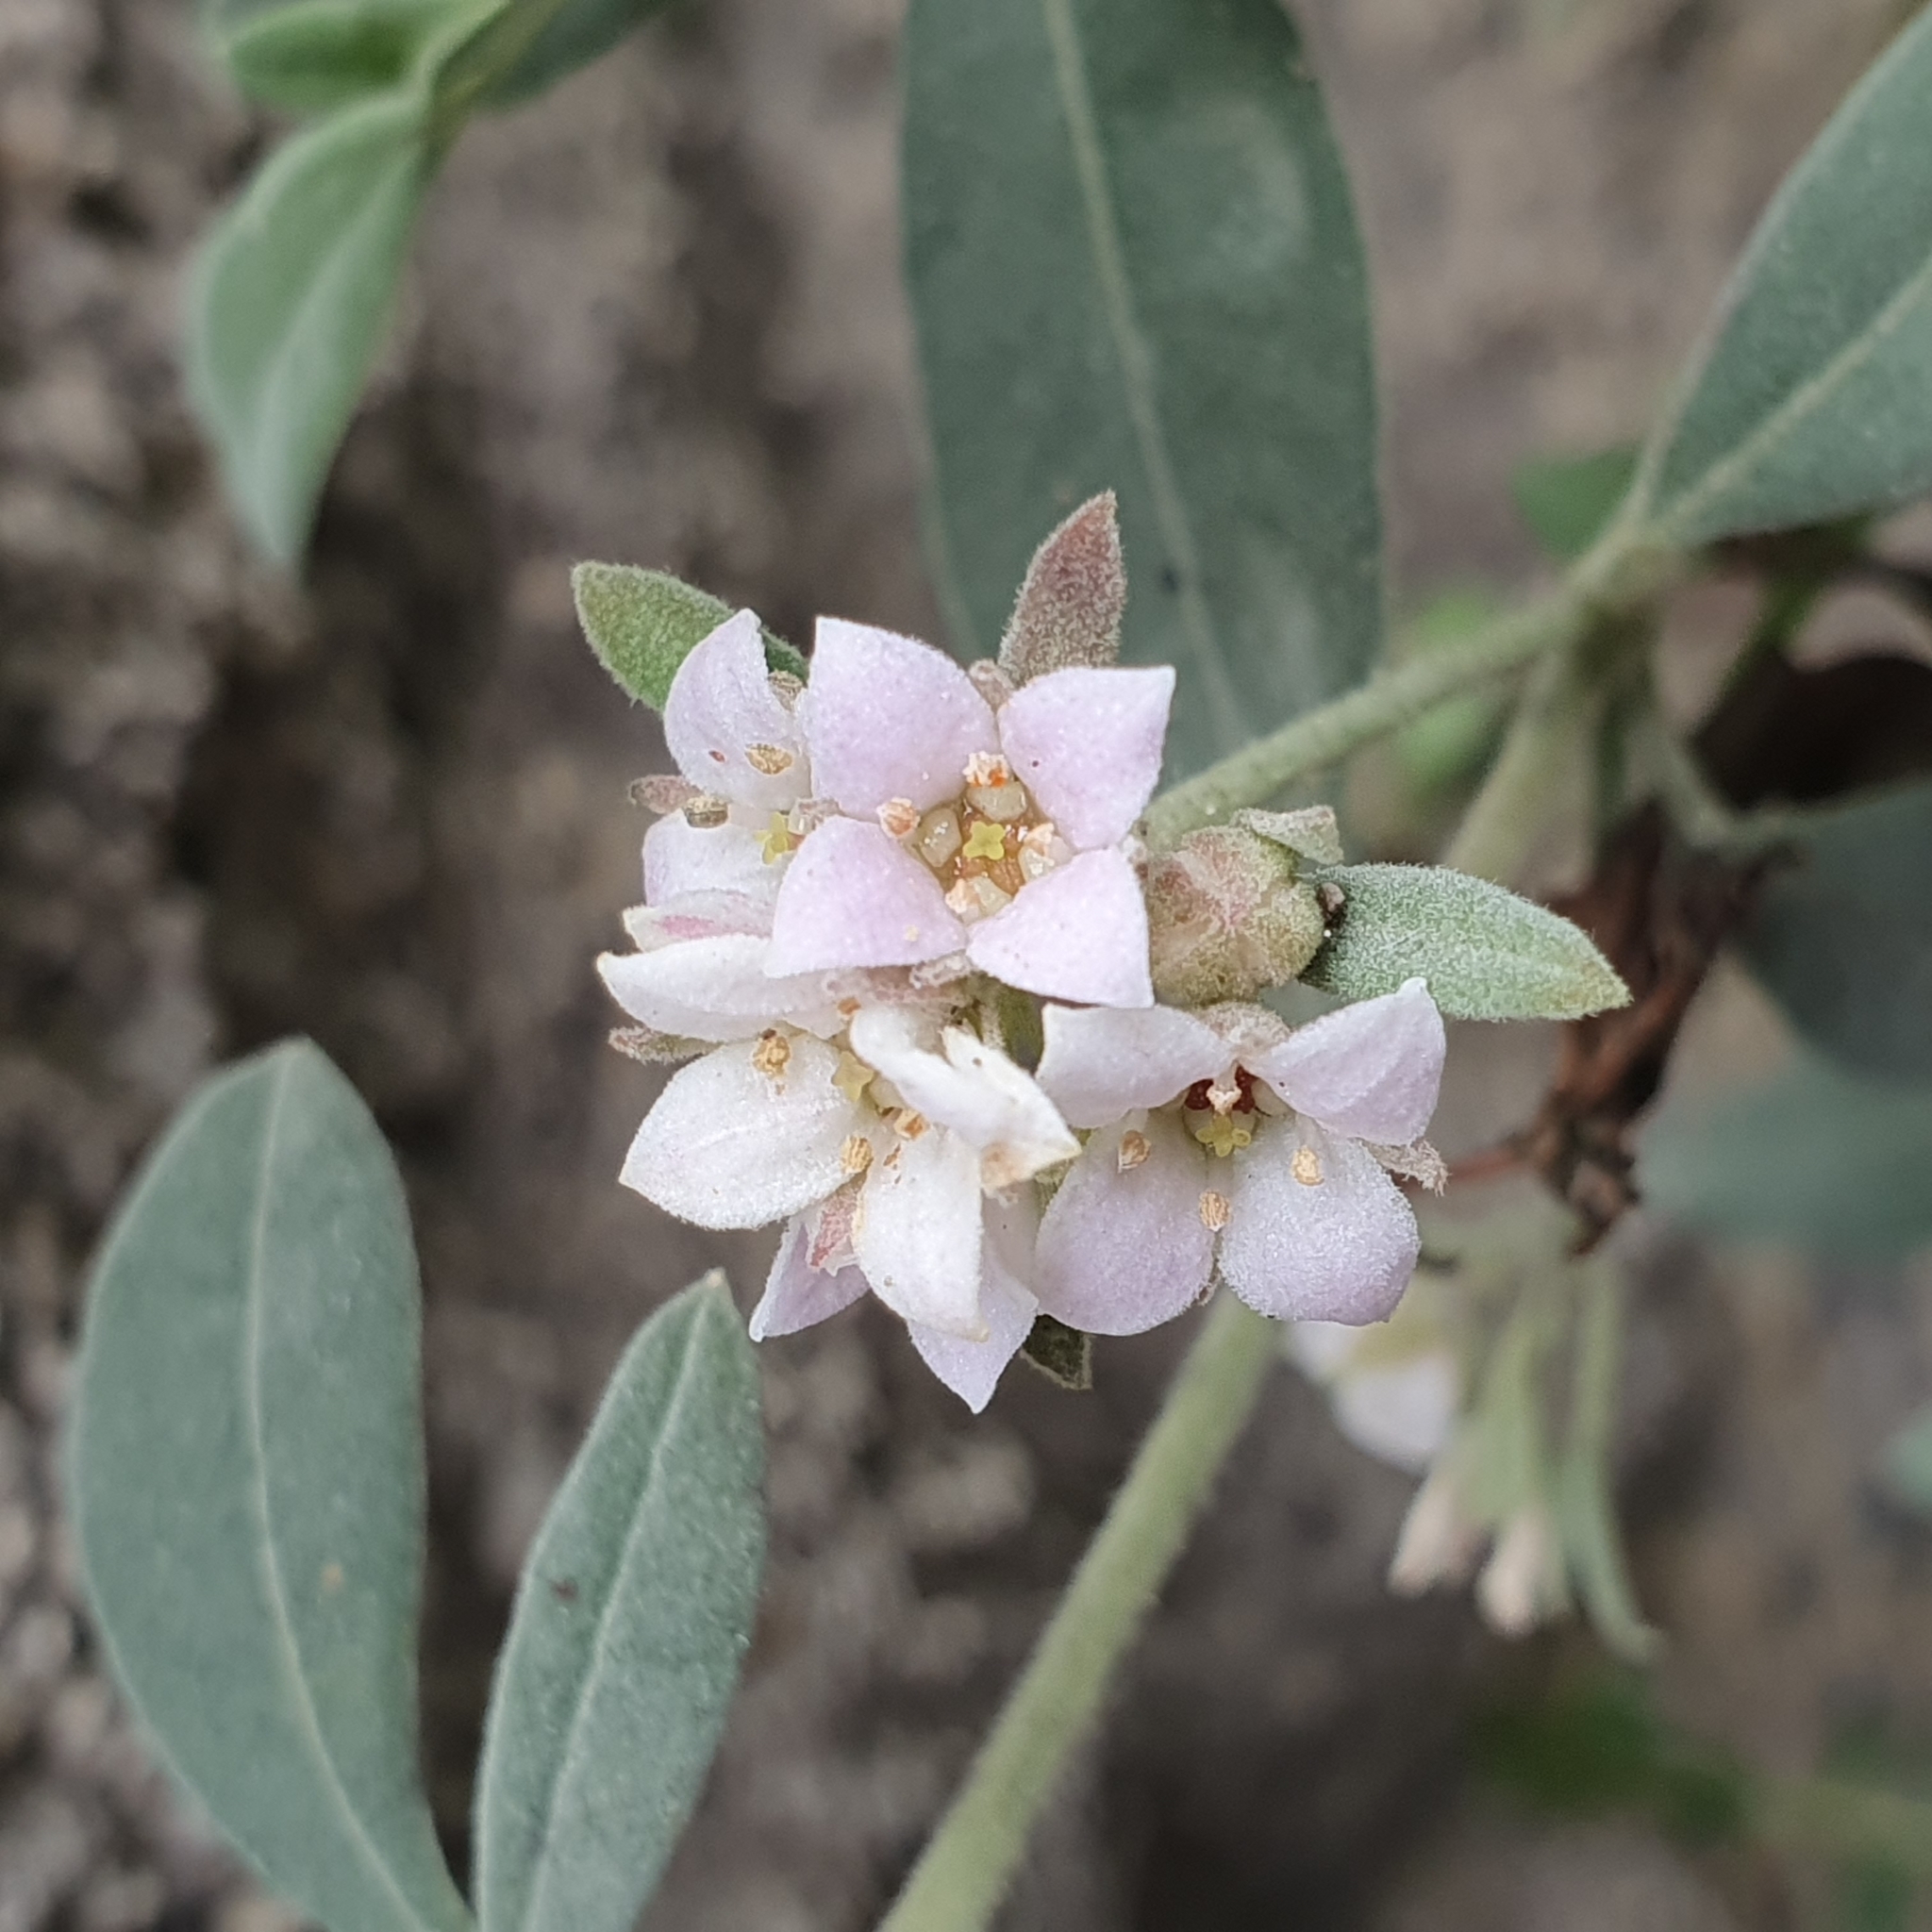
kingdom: Plantae
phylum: Tracheophyta
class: Magnoliopsida
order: Sapindales
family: Rutaceae
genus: Zieria
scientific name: Zieria cytisoides
